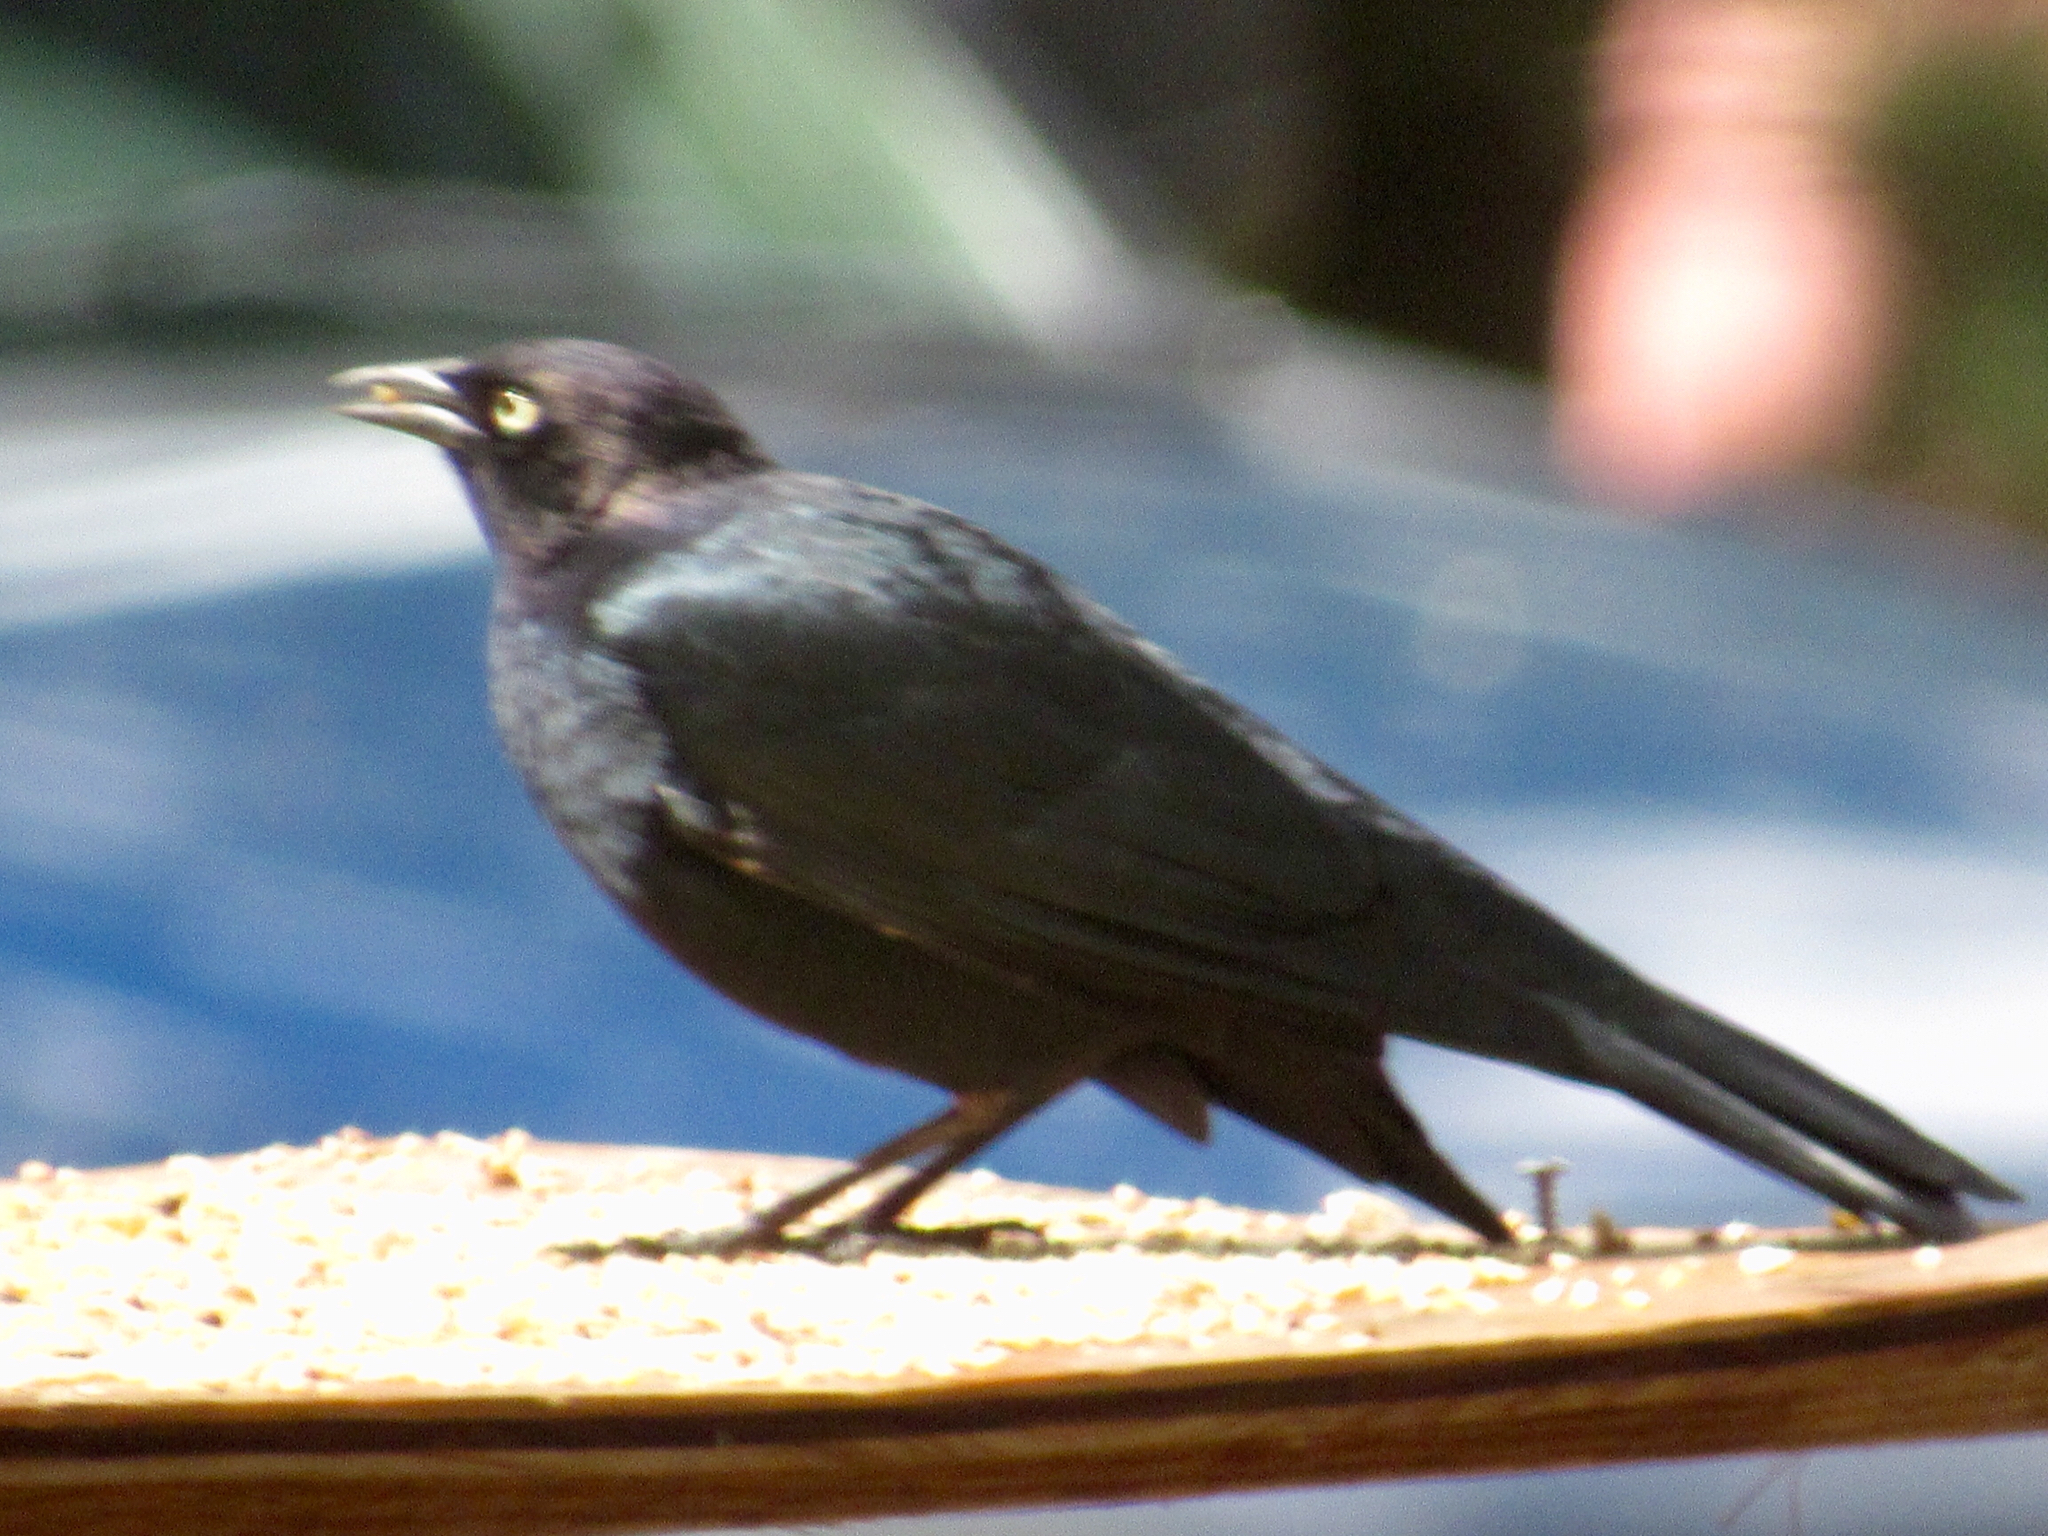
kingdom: Animalia
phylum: Chordata
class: Aves
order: Passeriformes
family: Icteridae
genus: Euphagus
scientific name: Euphagus cyanocephalus
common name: Brewer's blackbird
